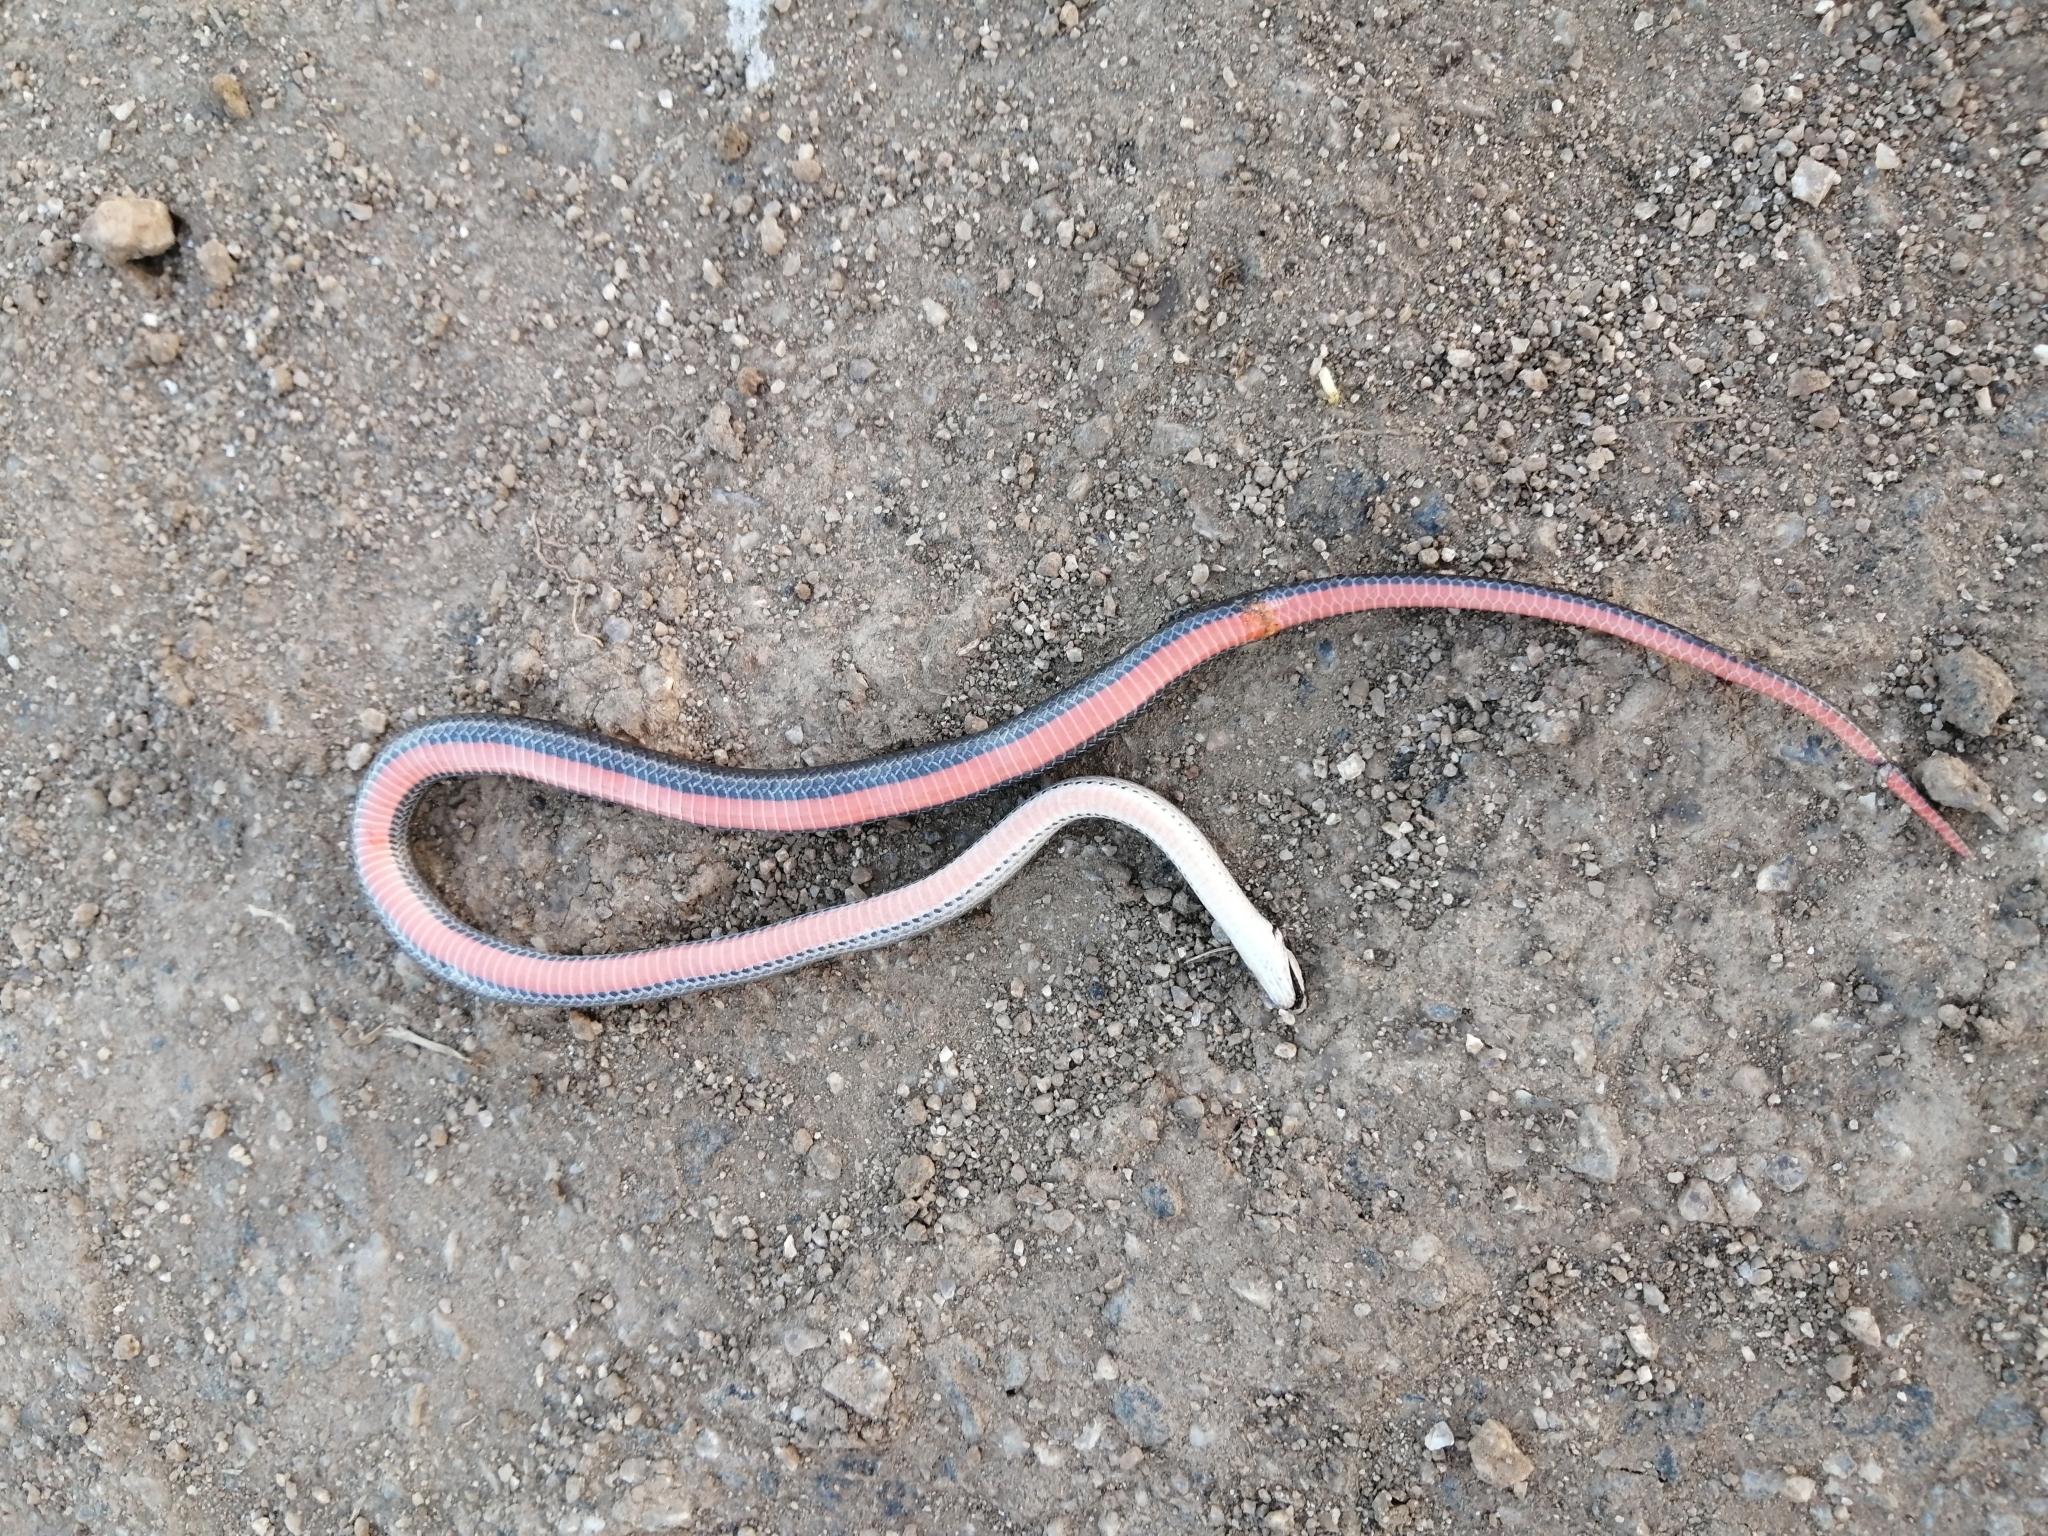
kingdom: Animalia
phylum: Chordata
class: Squamata
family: Colubridae
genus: Psomophis
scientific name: Psomophis obtusus
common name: Wide ground snake
